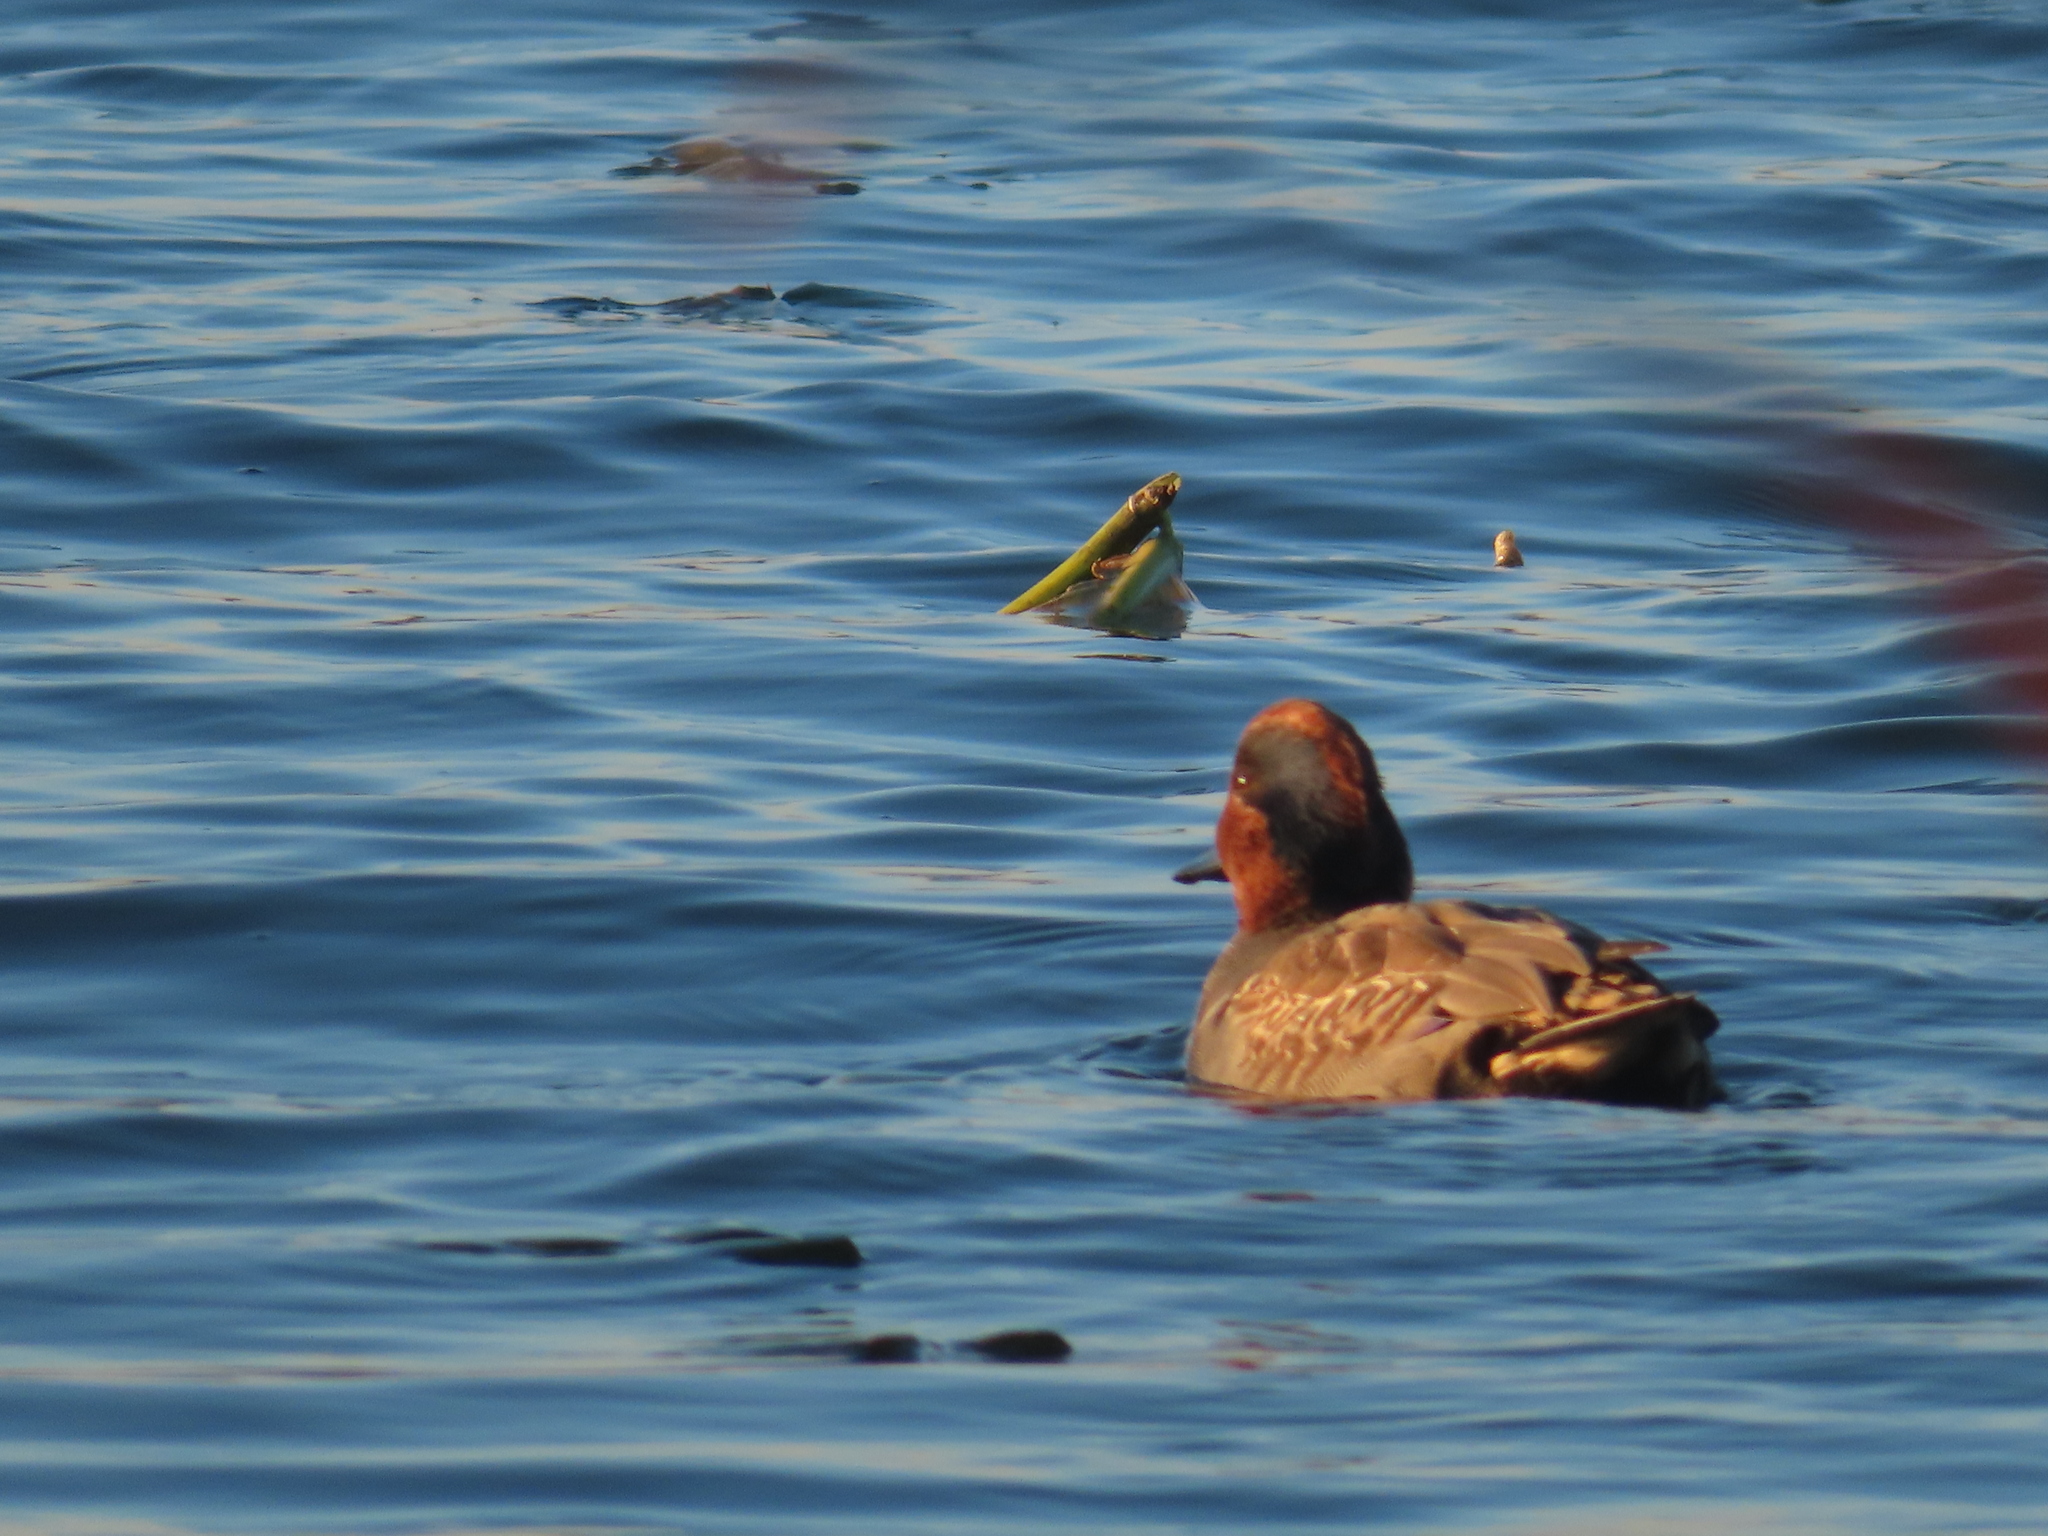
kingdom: Animalia
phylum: Chordata
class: Aves
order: Anseriformes
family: Anatidae
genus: Anas
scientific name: Anas crecca
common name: Eurasian teal
